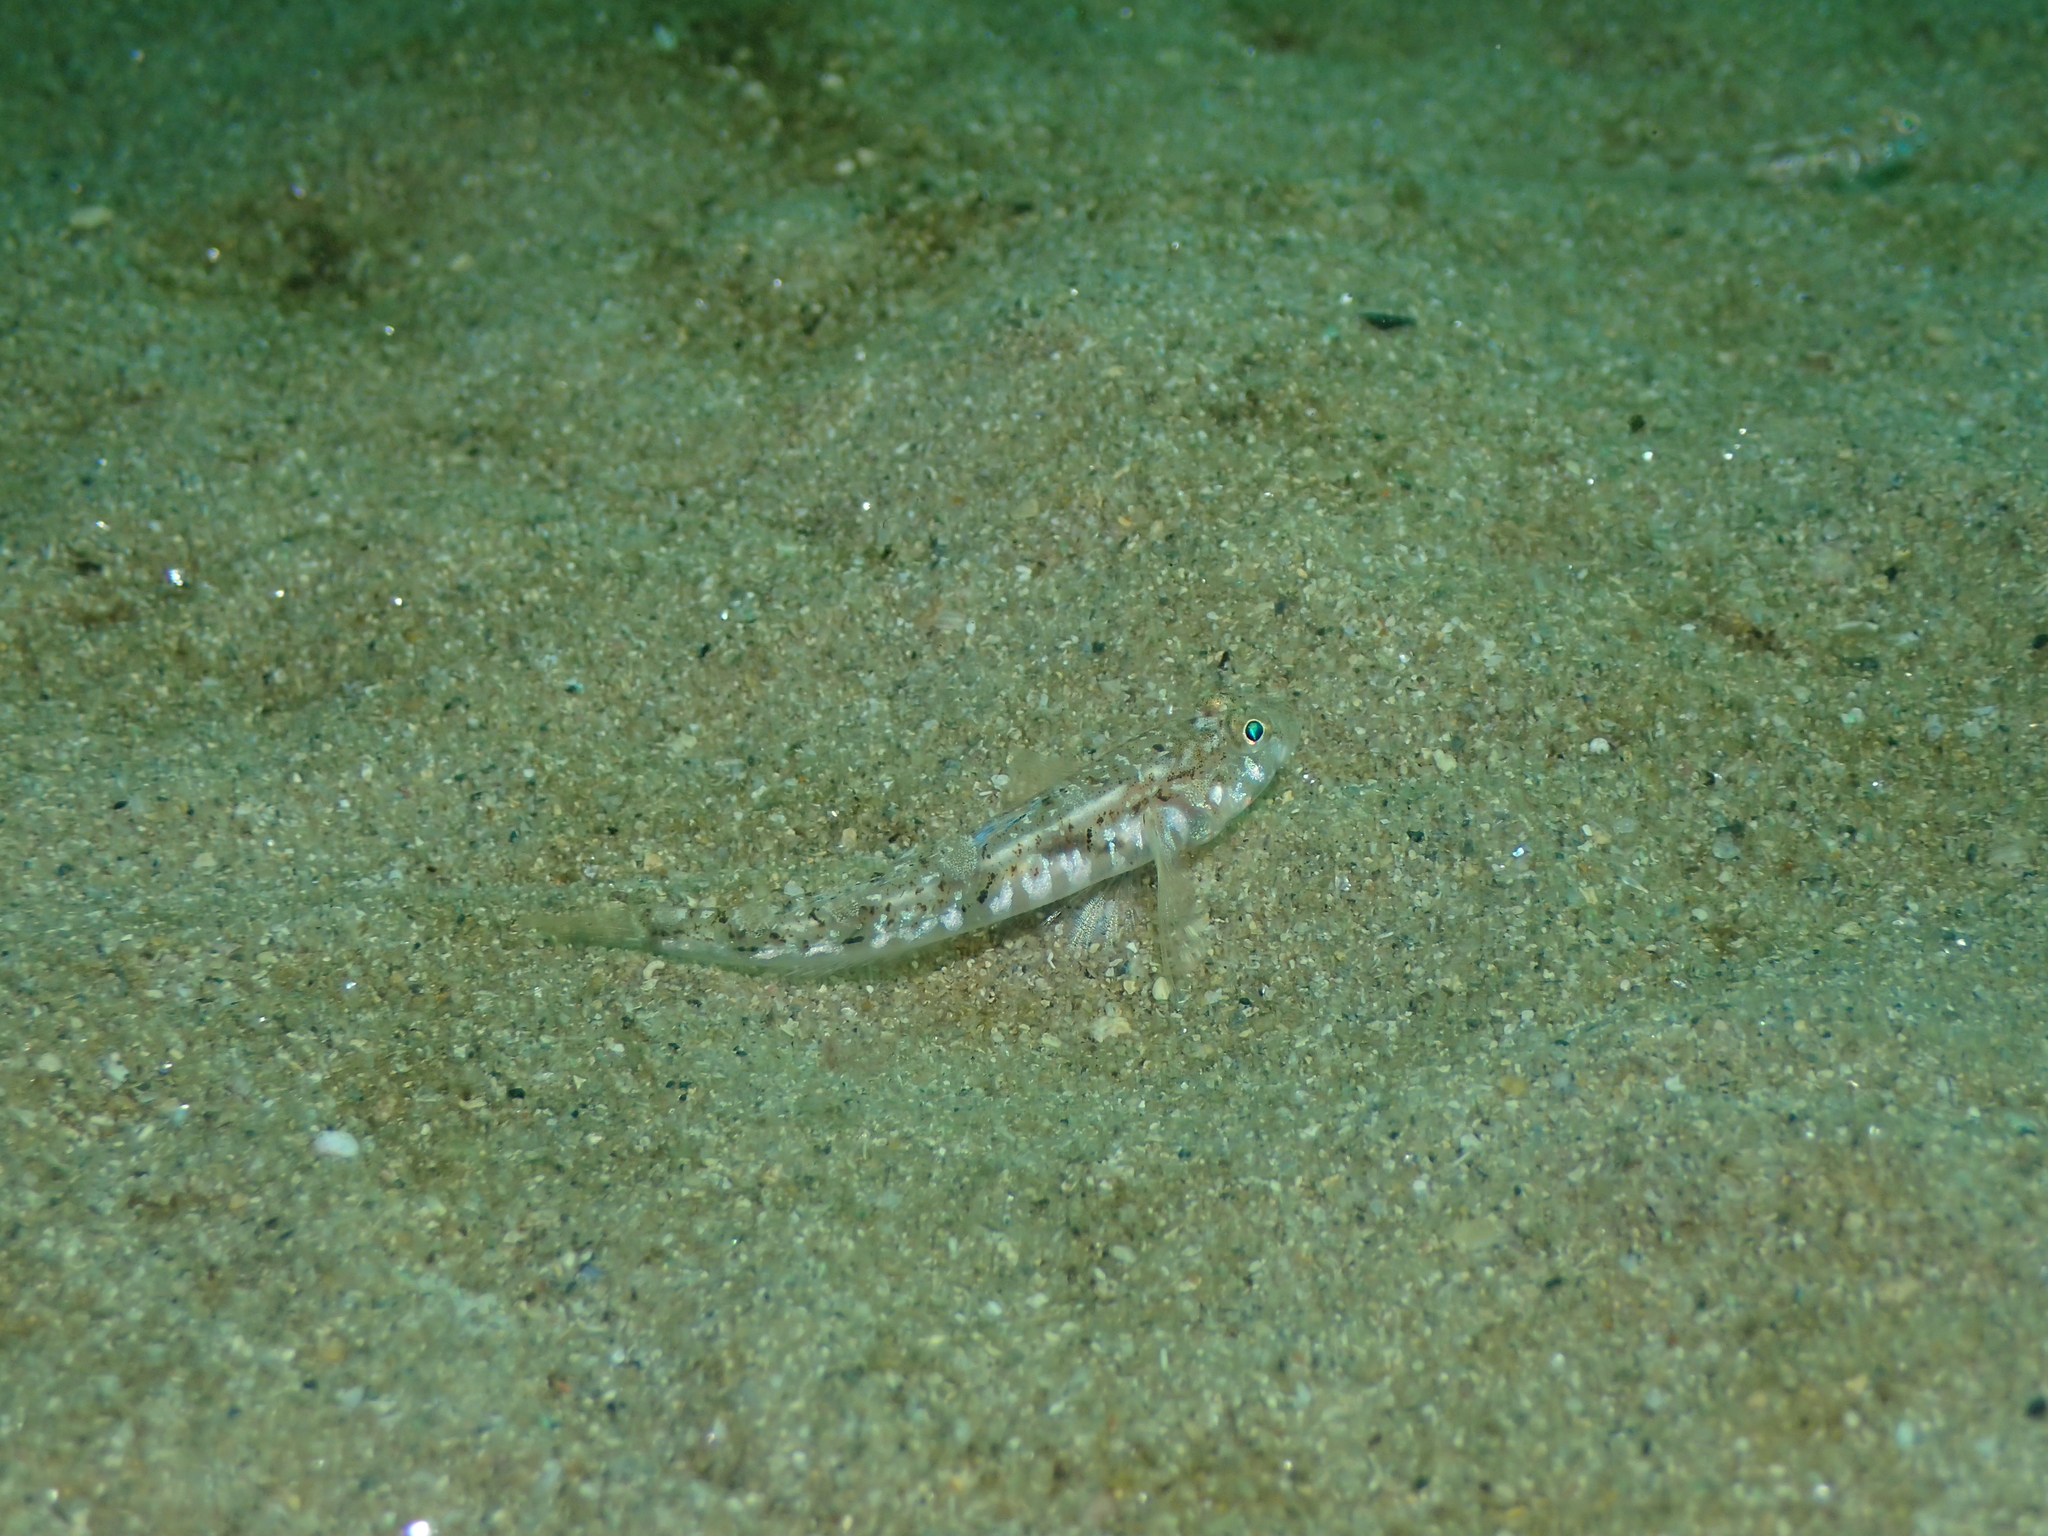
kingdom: Animalia
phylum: Chordata
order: Perciformes
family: Gobiidae
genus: Pomatoschistus
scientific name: Pomatoschistus pictus
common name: Painted goby
